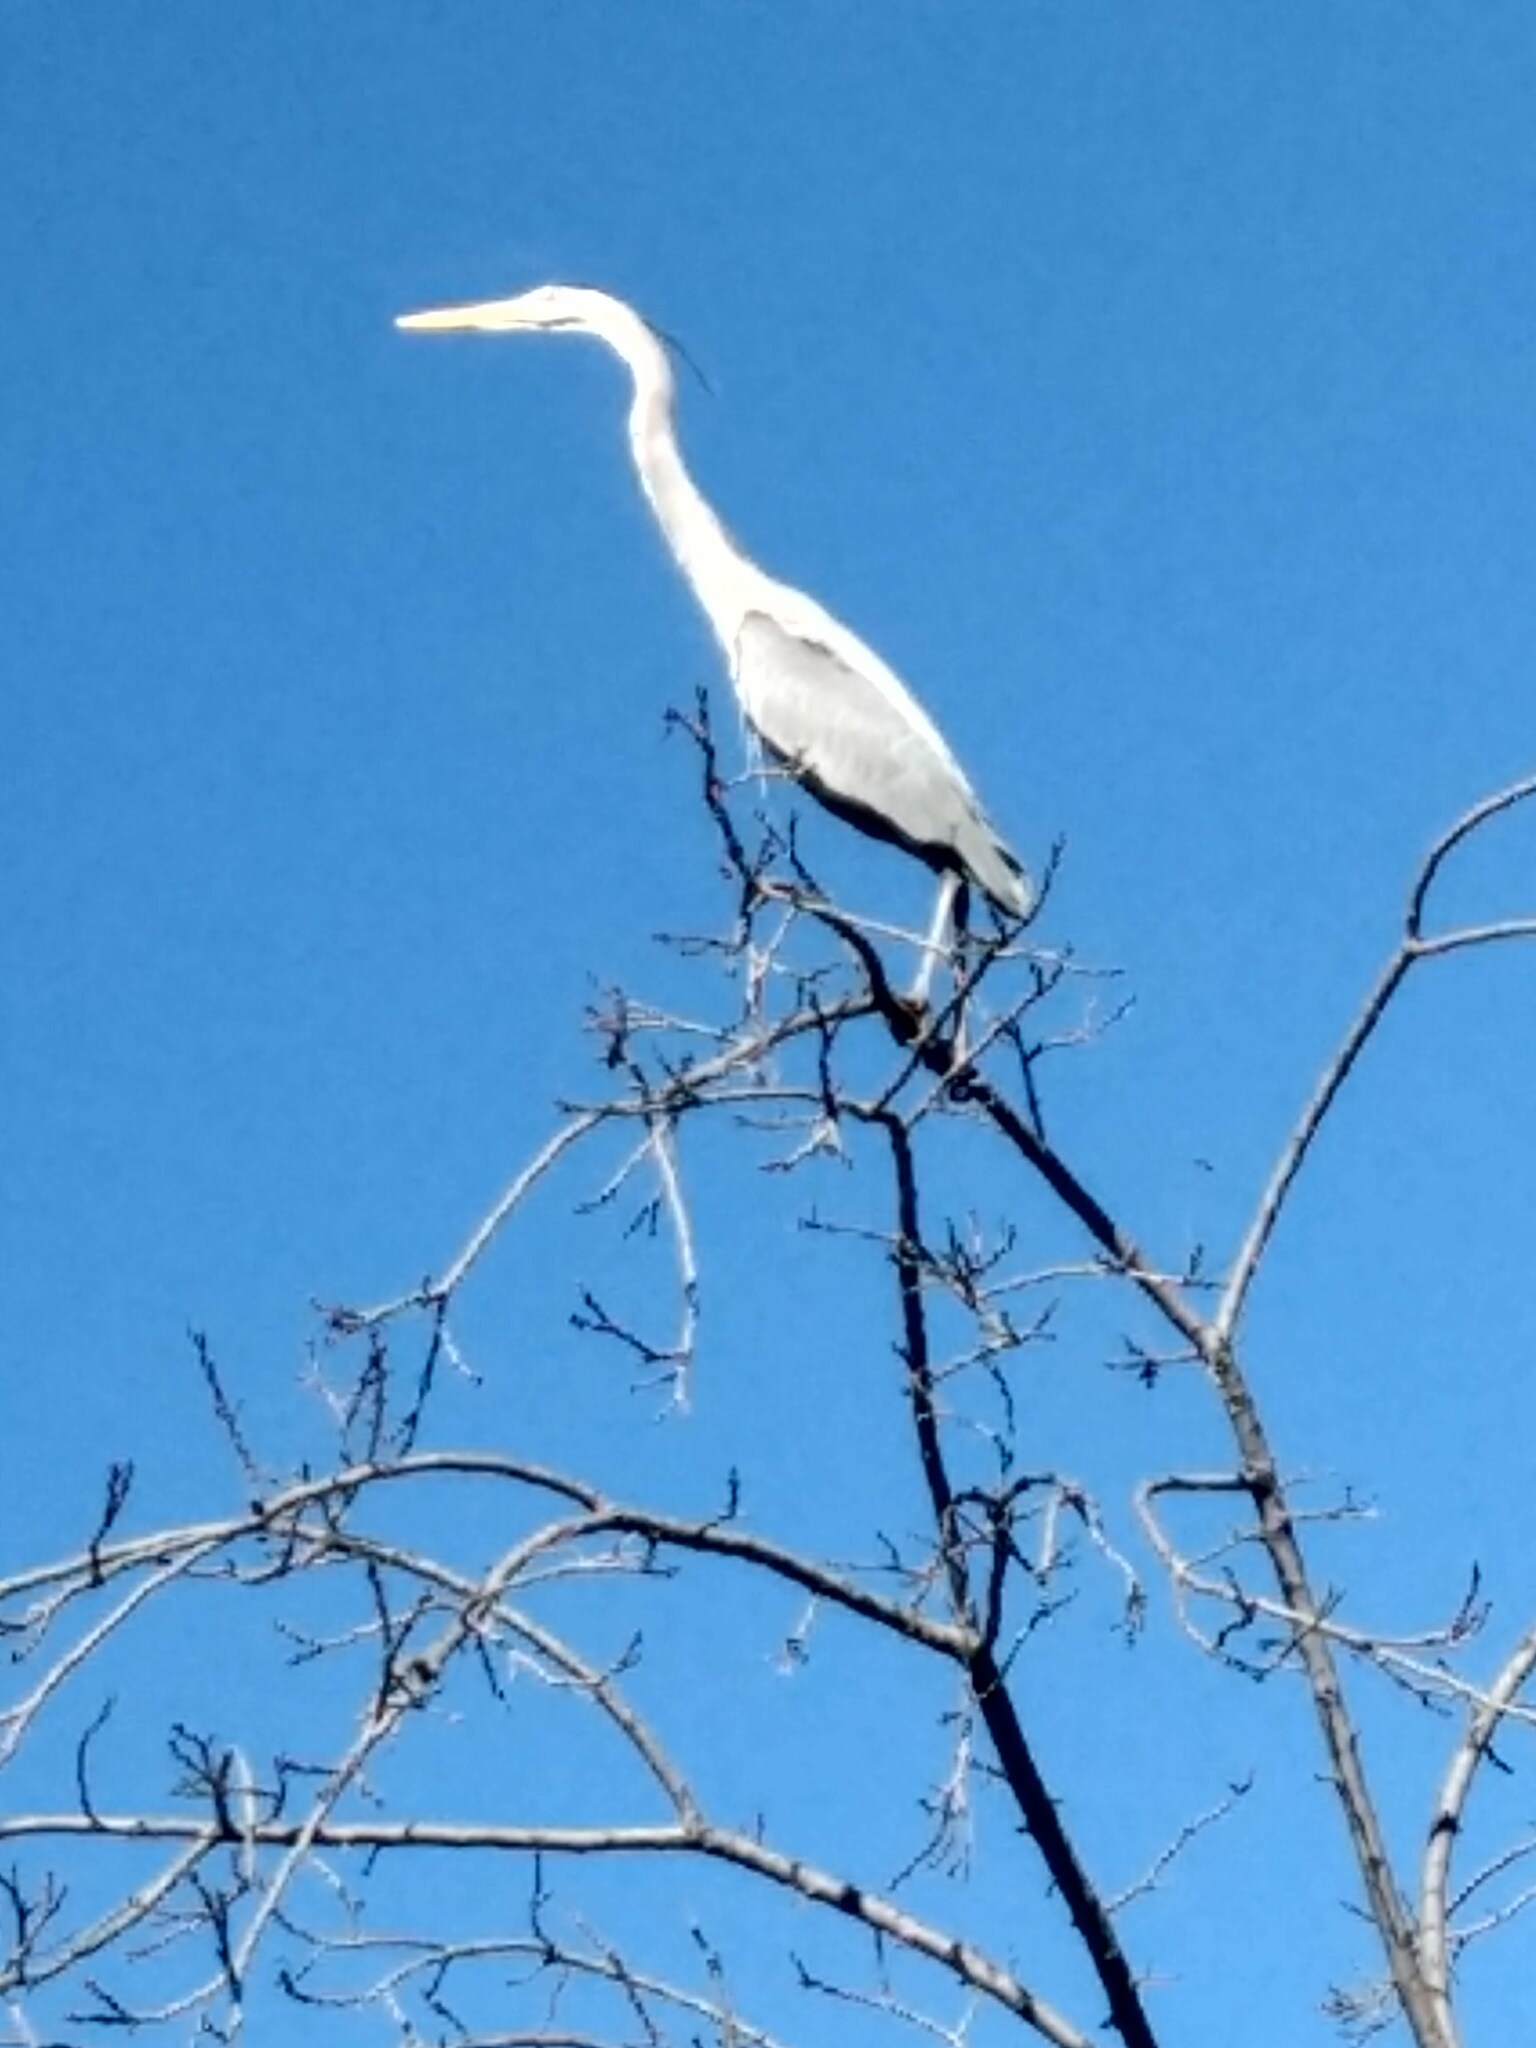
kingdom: Animalia
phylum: Chordata
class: Aves
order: Pelecaniformes
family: Ardeidae
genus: Ardea
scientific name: Ardea herodias
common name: Great blue heron
